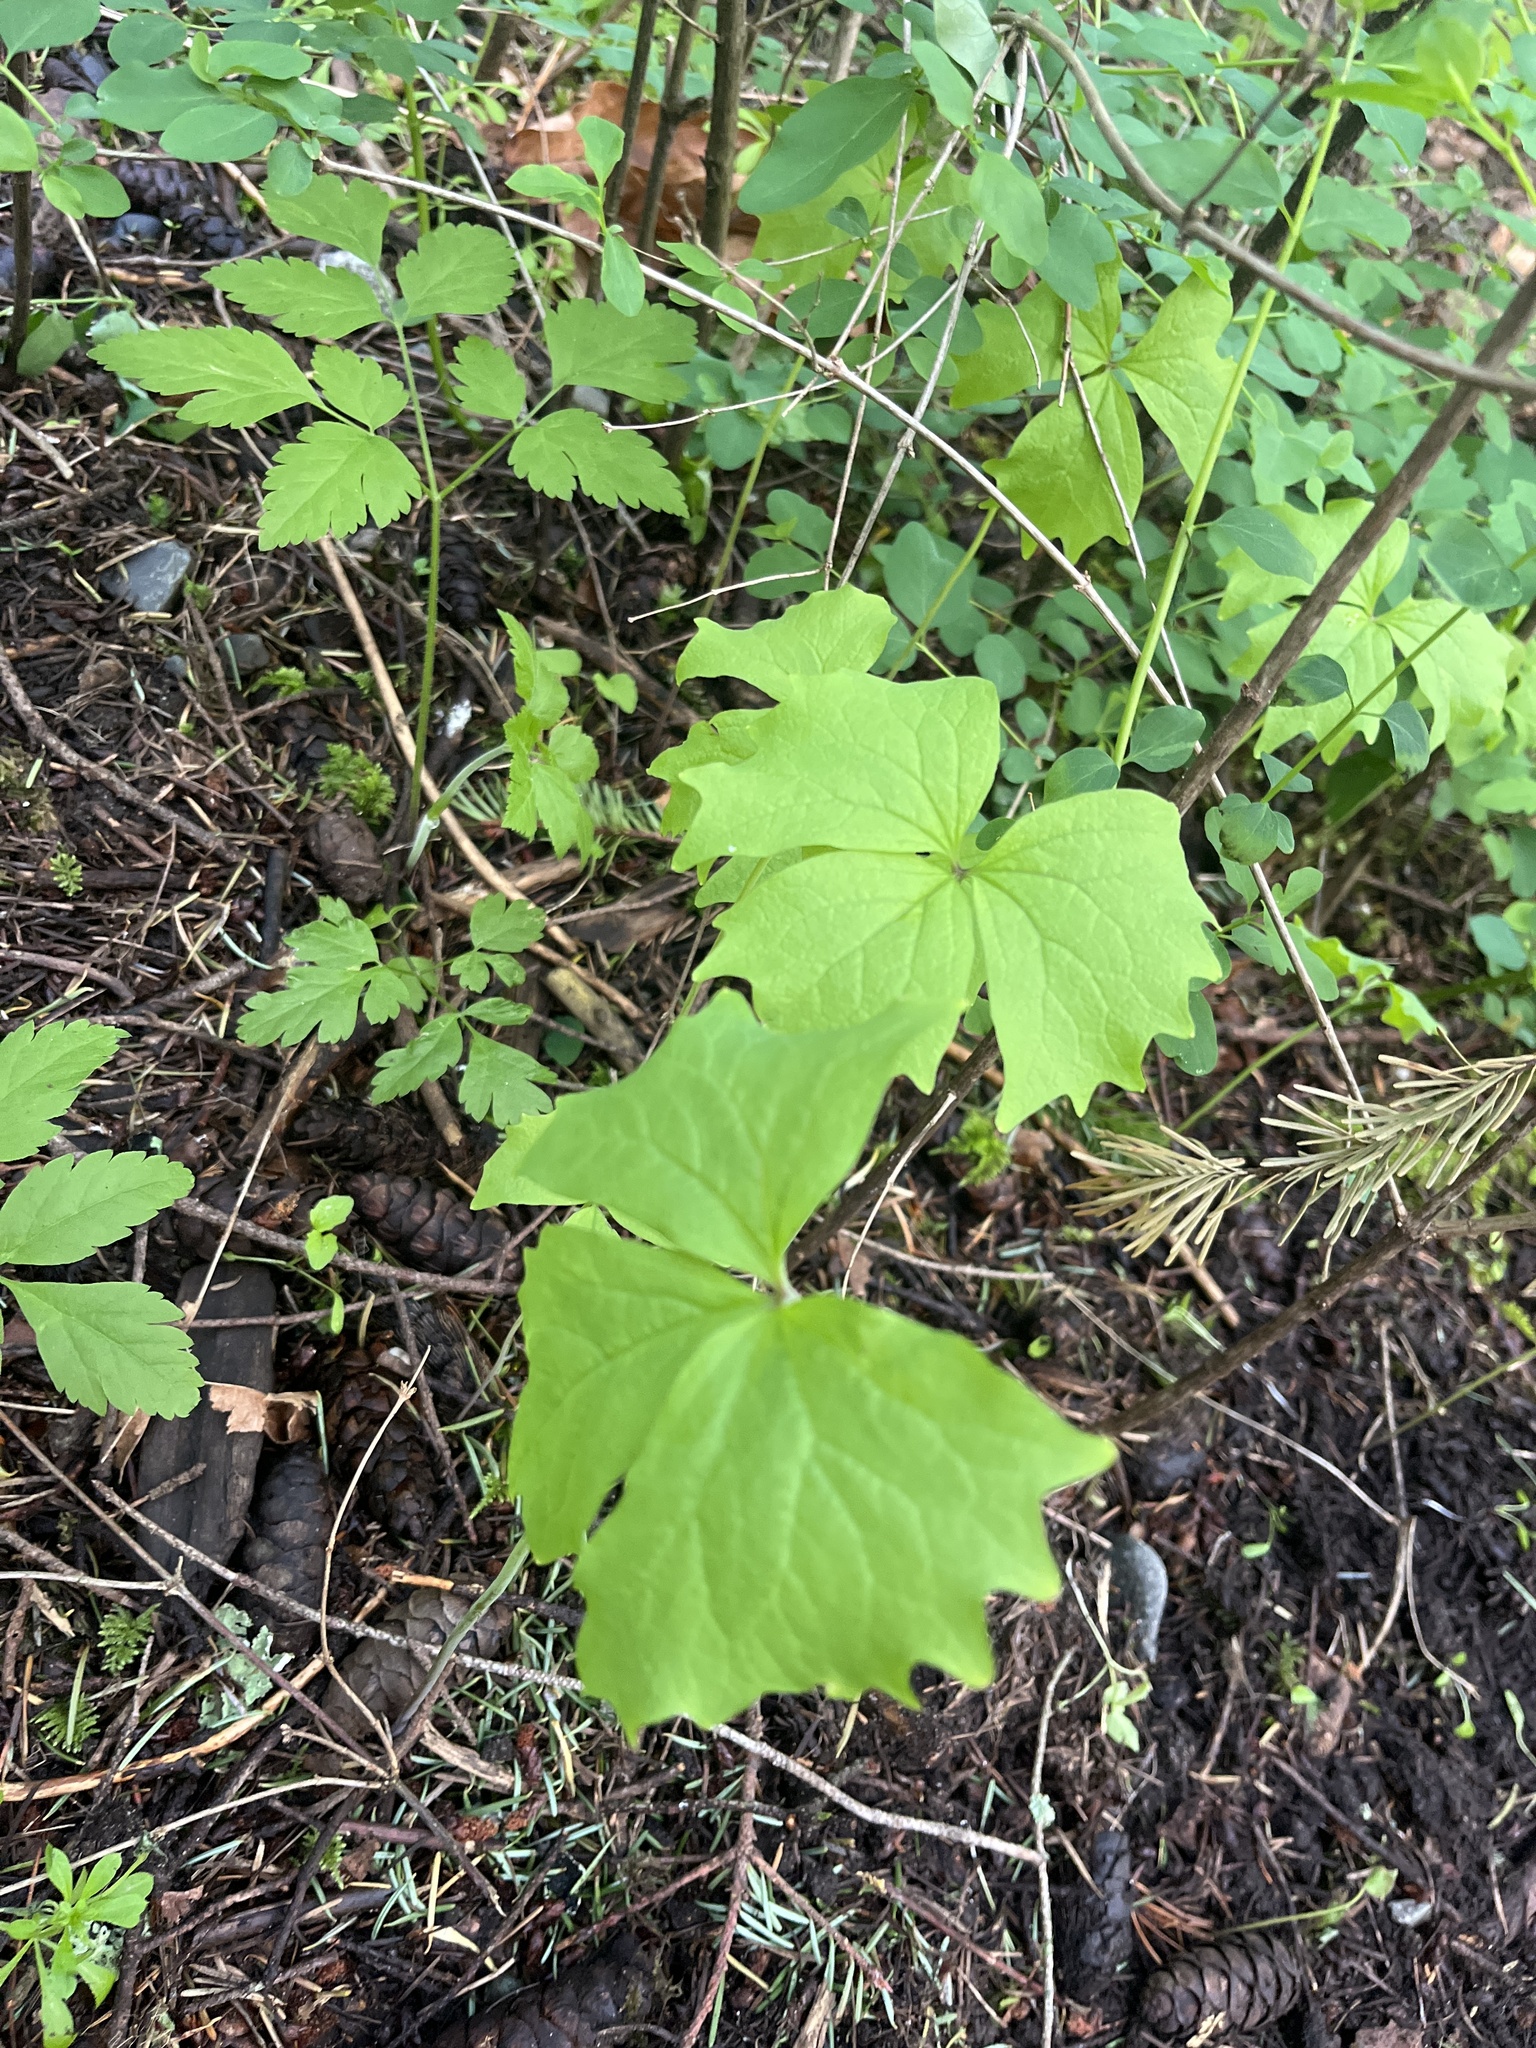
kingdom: Plantae
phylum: Tracheophyta
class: Magnoliopsida
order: Ranunculales
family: Berberidaceae
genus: Achlys
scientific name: Achlys triphylla
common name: Vanilla-leaf
